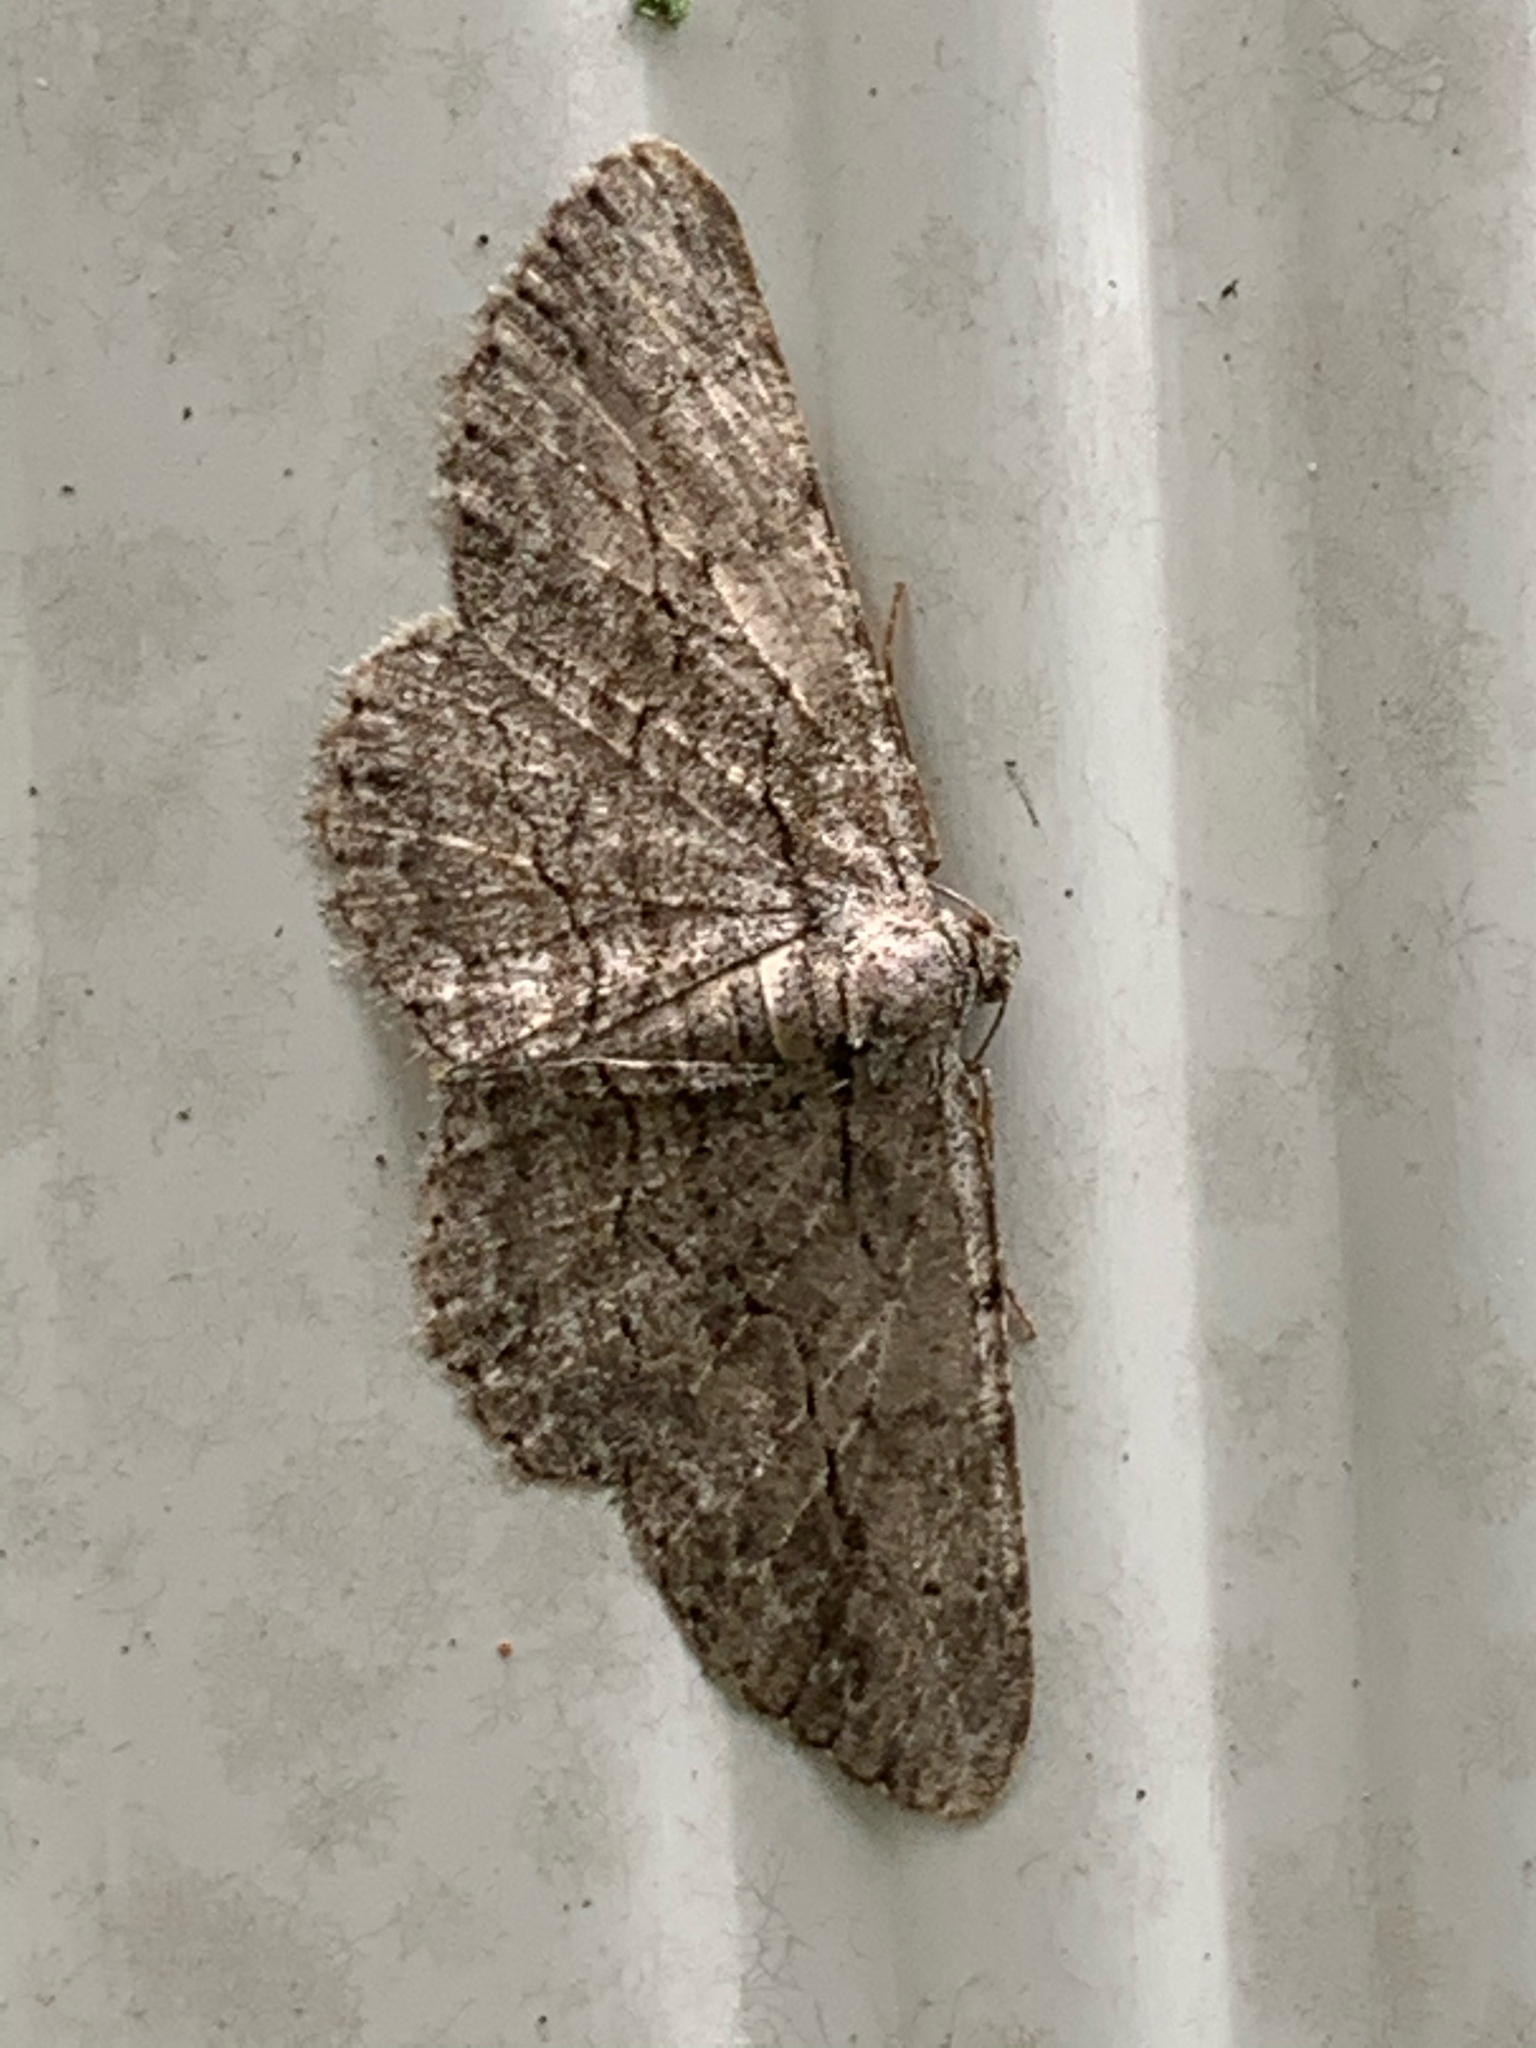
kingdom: Animalia
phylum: Arthropoda
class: Insecta
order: Lepidoptera
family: Geometridae
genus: Anavitrinella
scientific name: Anavitrinella pampinaria
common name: Common gray
